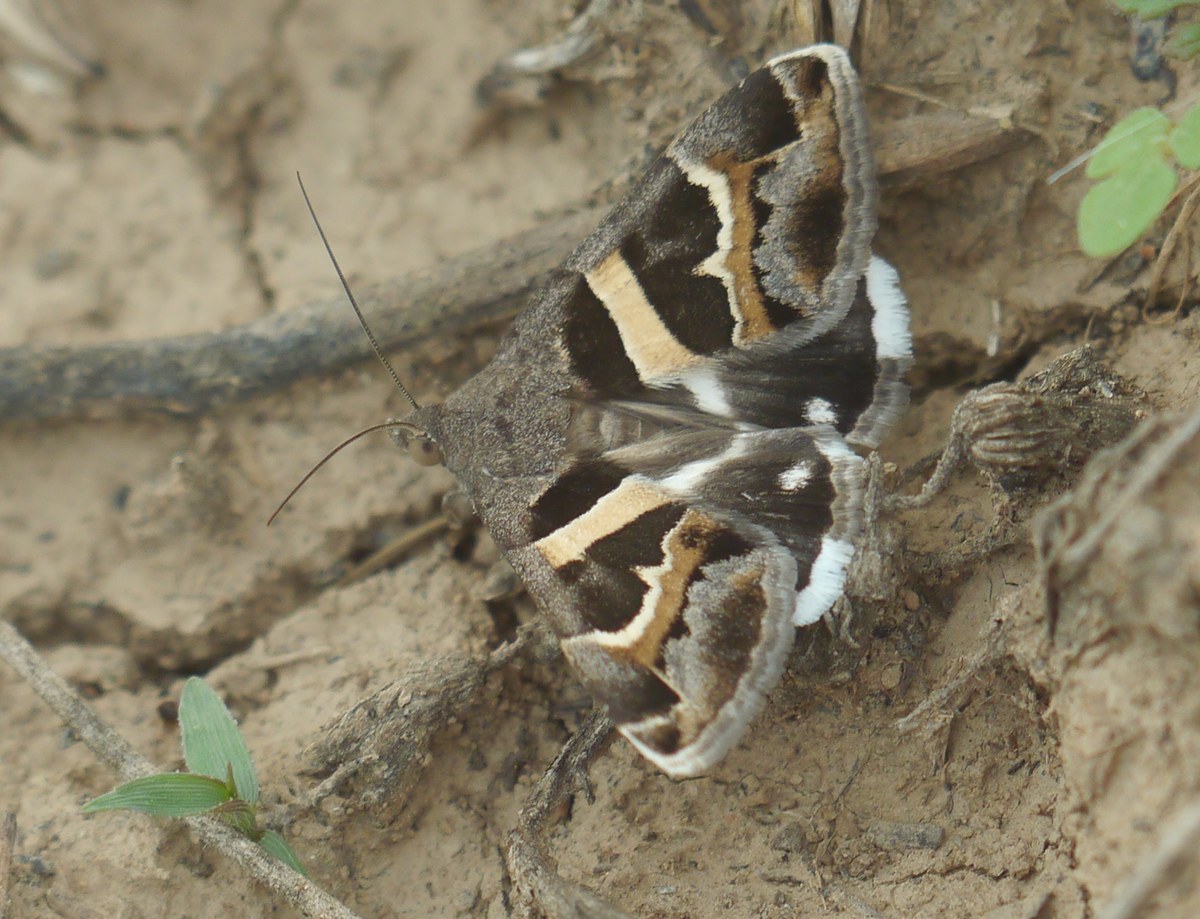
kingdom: Animalia
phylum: Arthropoda
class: Insecta
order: Lepidoptera
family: Erebidae
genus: Grammodes
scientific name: Grammodes stolida
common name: Geometrician
